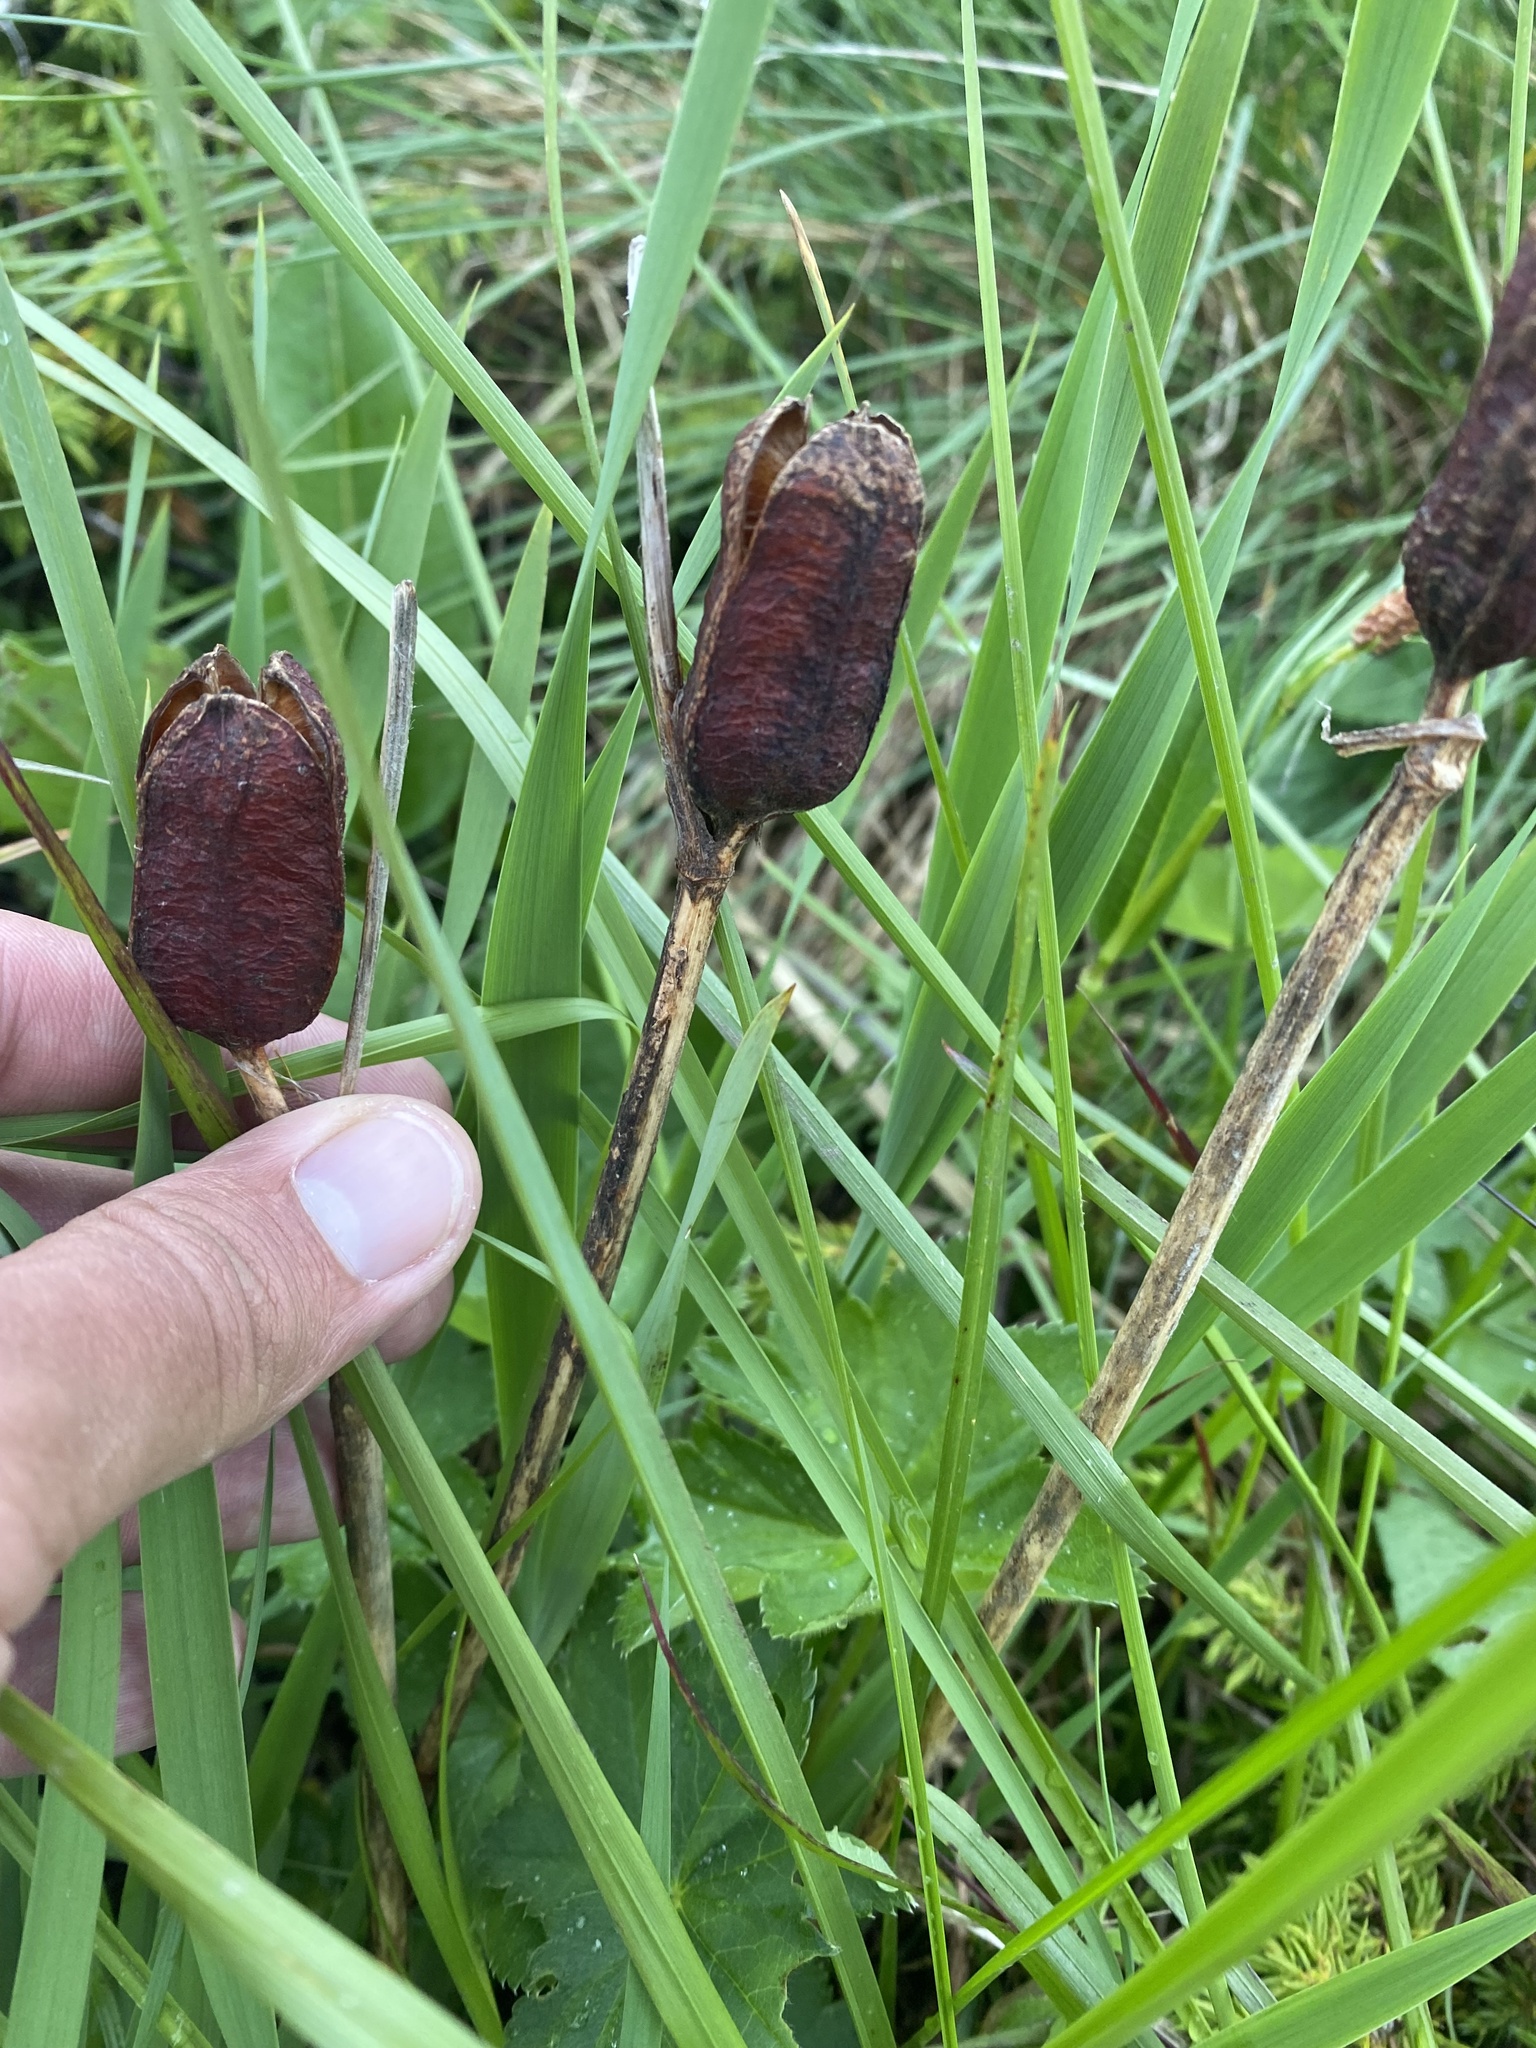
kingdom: Plantae
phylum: Tracheophyta
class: Liliopsida
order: Asparagales
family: Iridaceae
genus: Iris
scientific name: Iris sibirica
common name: Siberian iris
